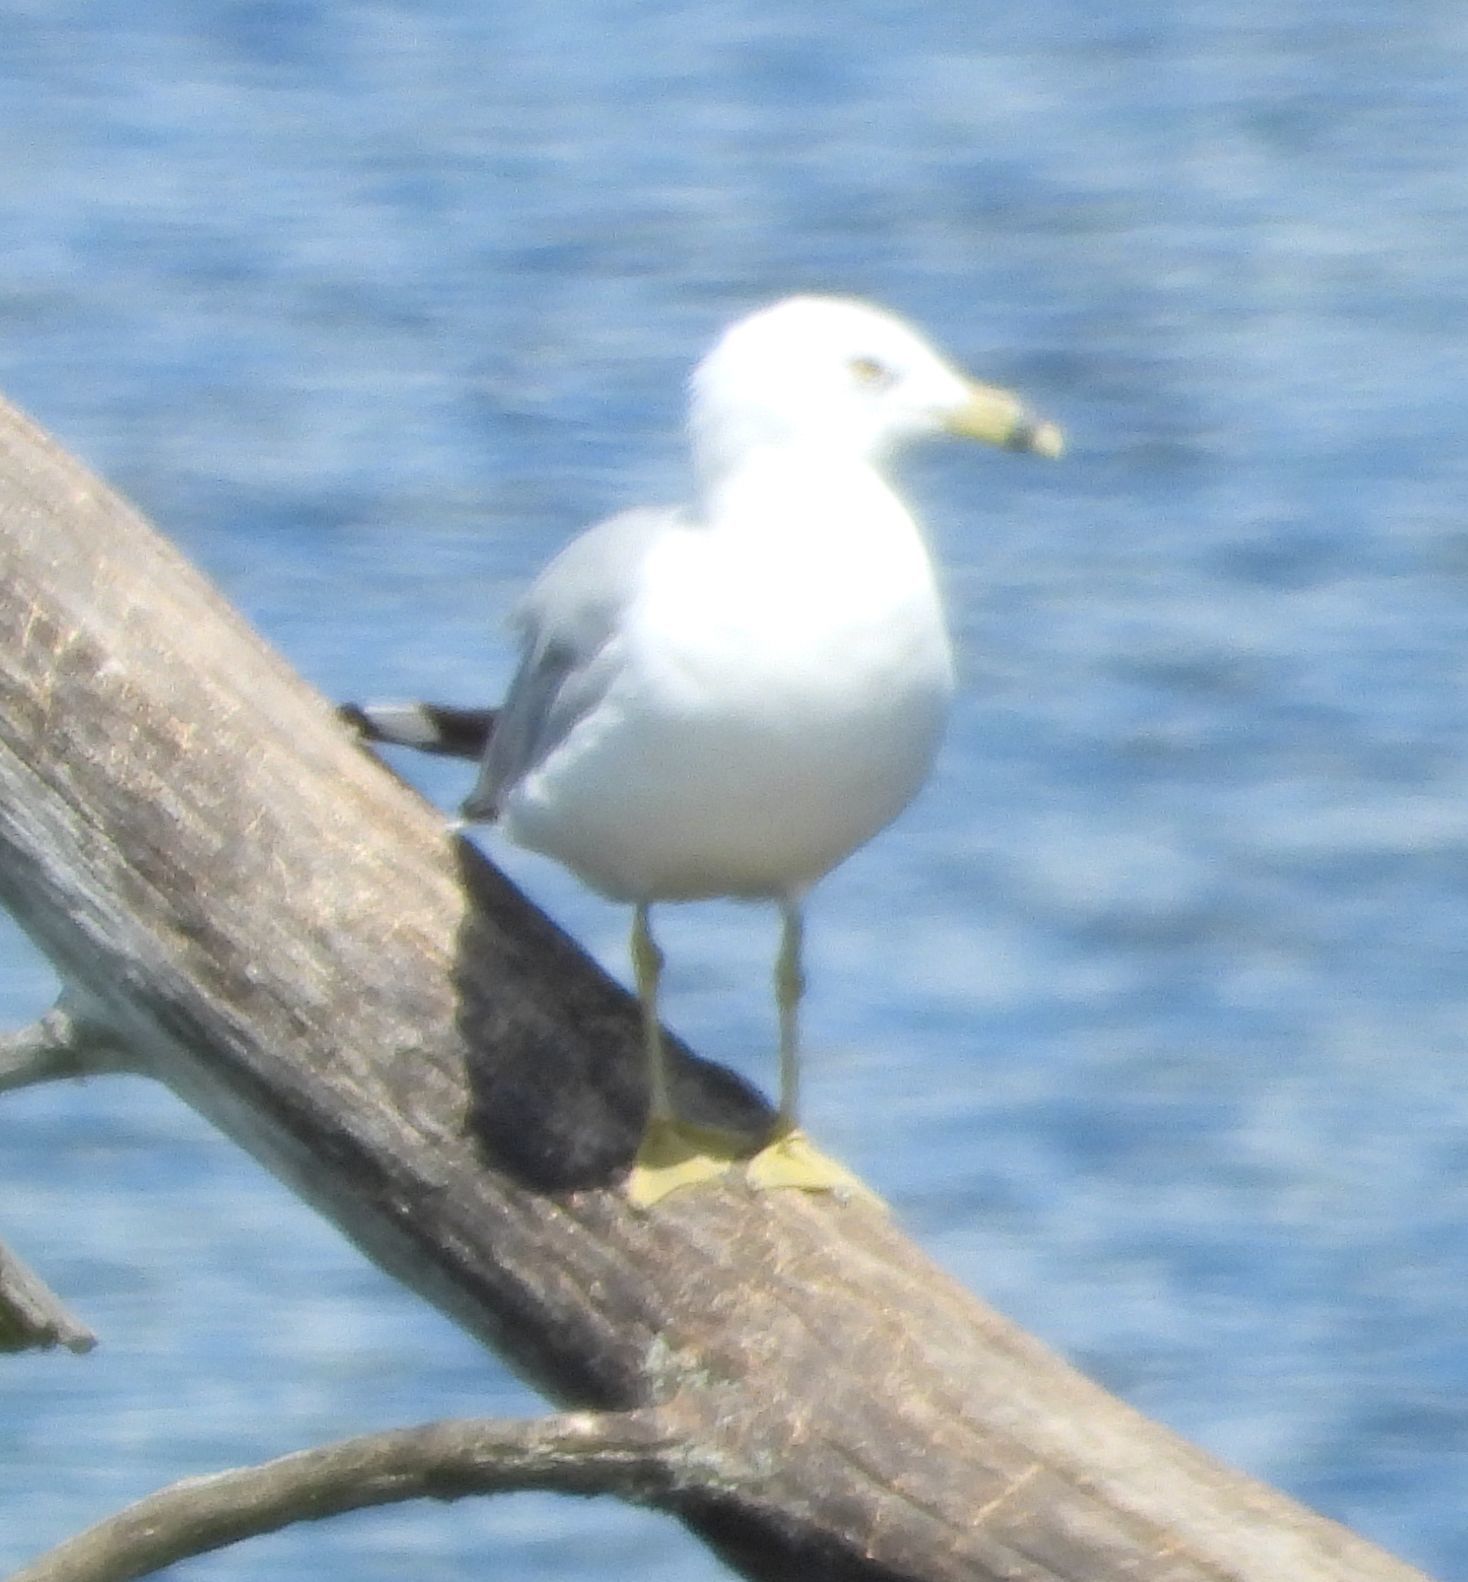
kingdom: Animalia
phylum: Chordata
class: Aves
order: Charadriiformes
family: Laridae
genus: Larus
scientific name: Larus delawarensis
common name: Ring-billed gull
